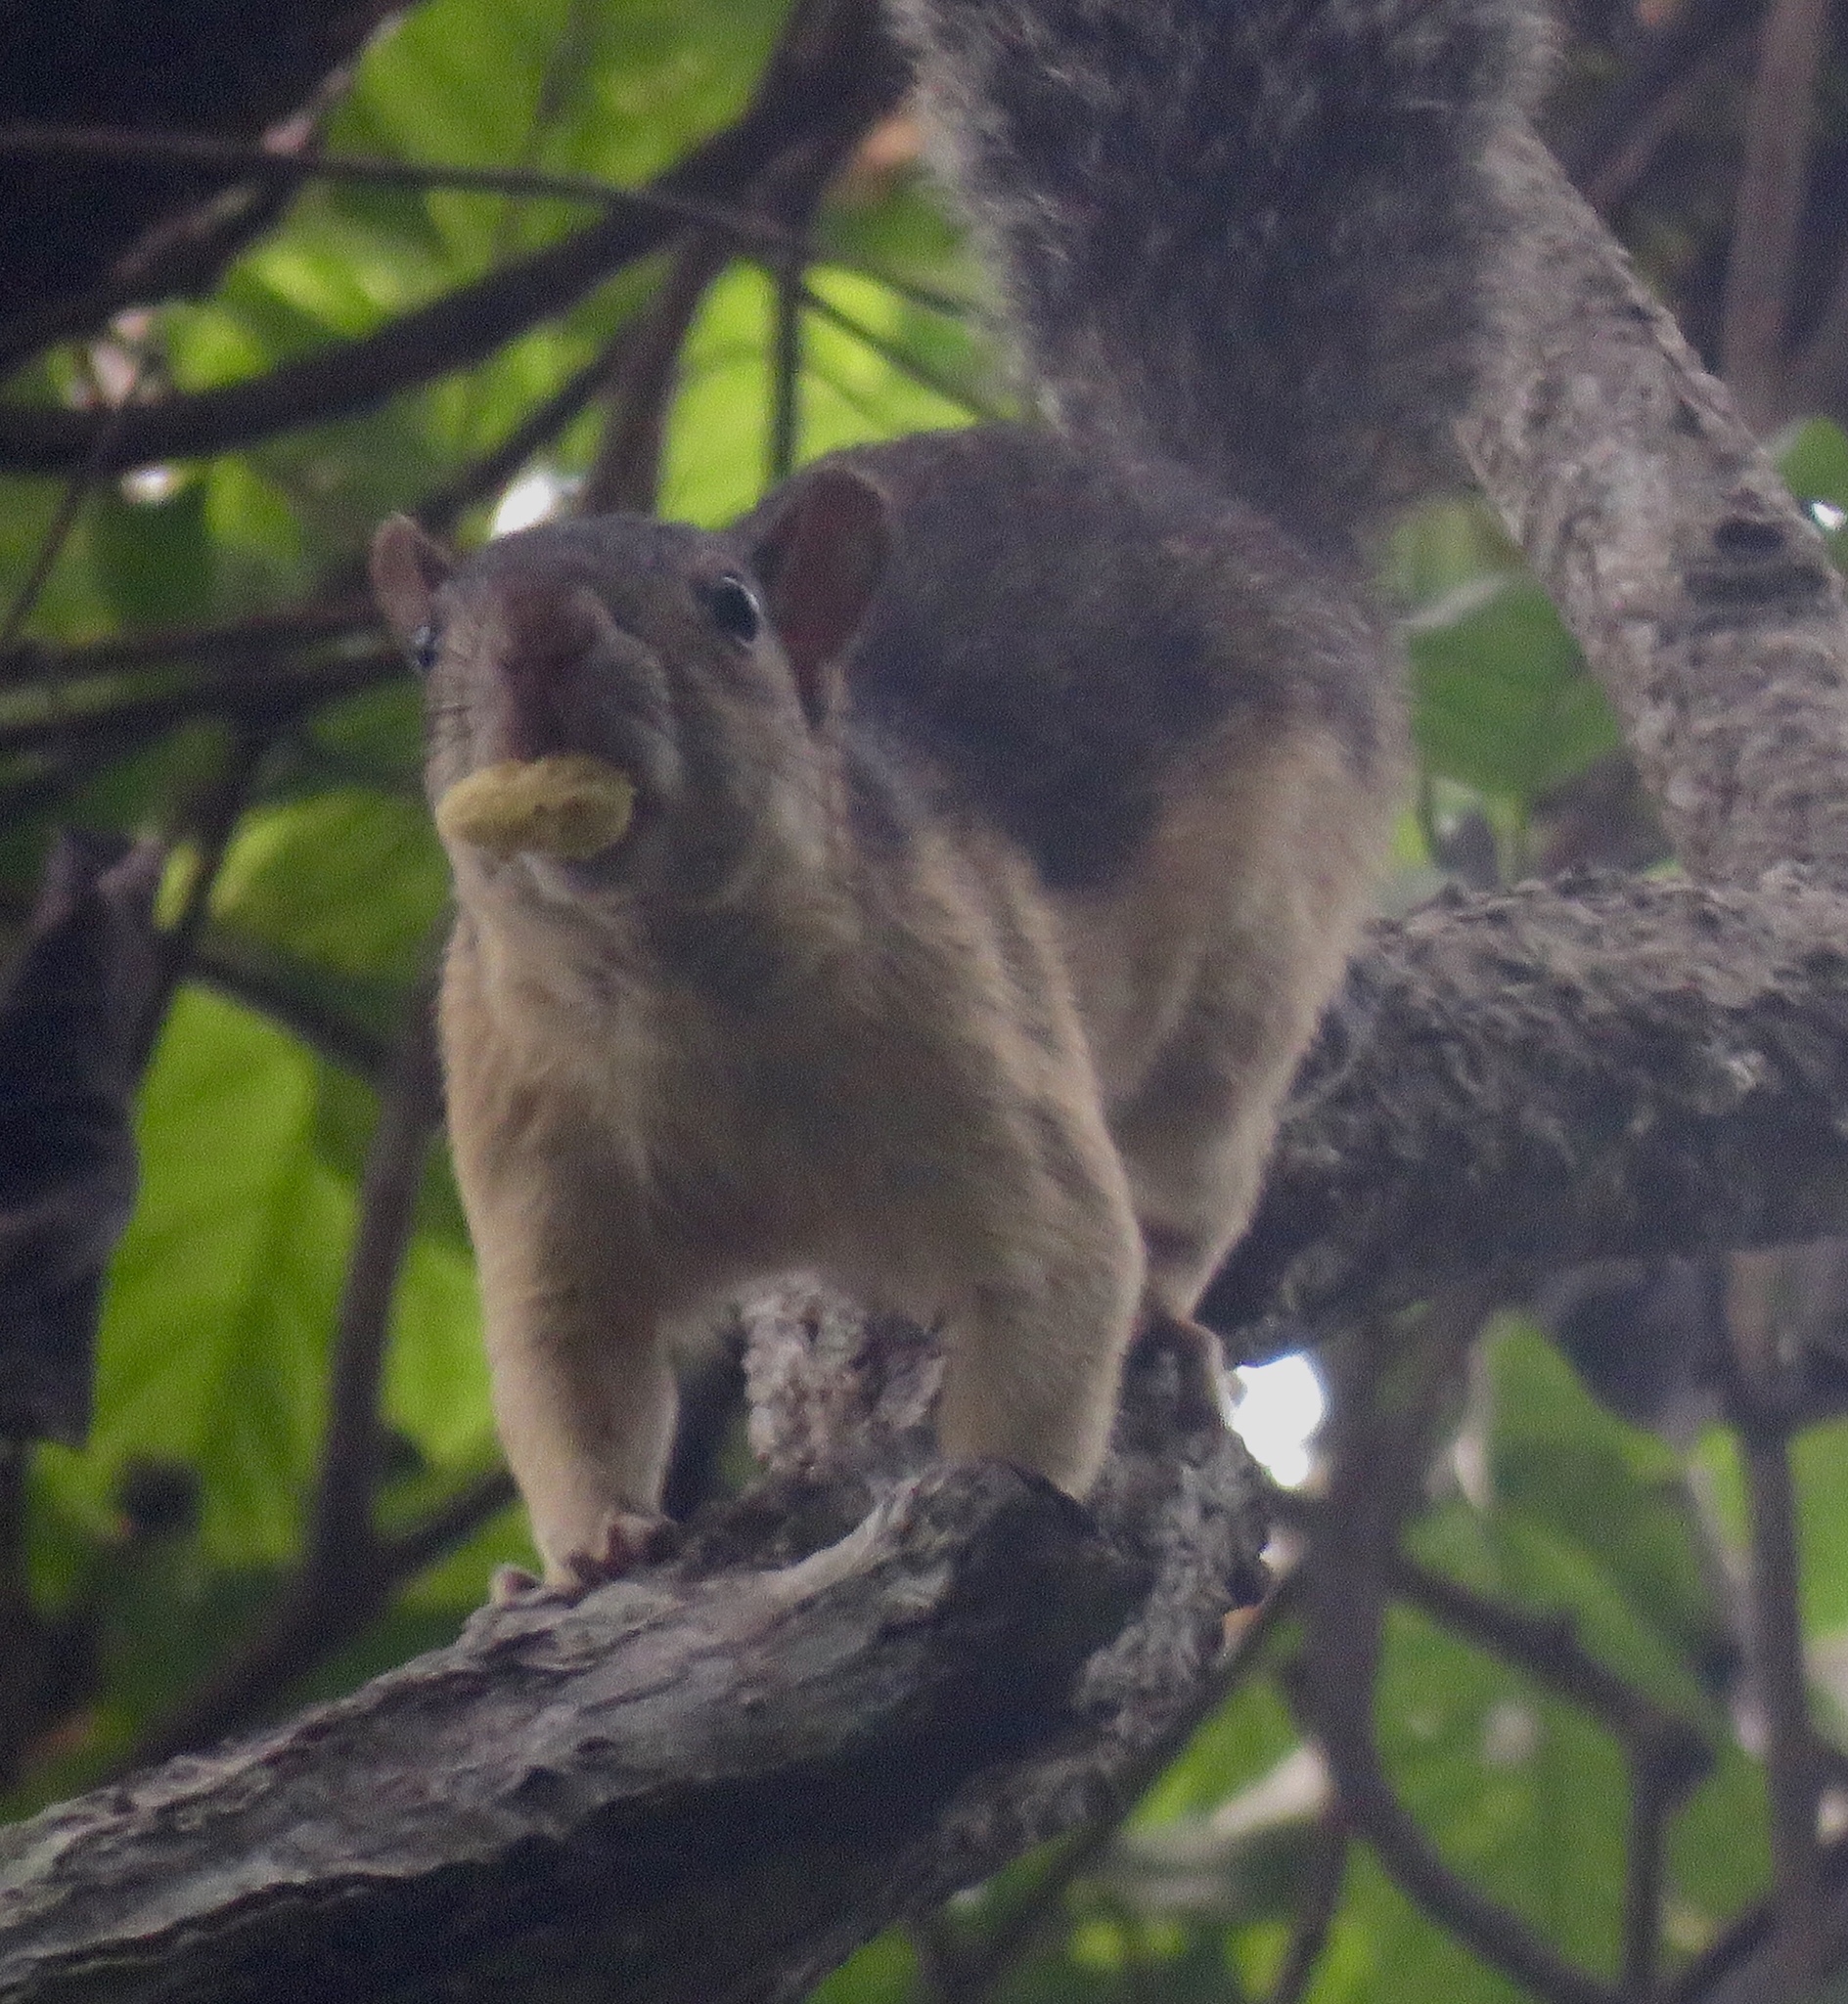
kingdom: Animalia
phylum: Chordata
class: Mammalia
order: Rodentia
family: Sciuridae
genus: Sciurus
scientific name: Sciurus variegatoides
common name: Variegated squirrel
